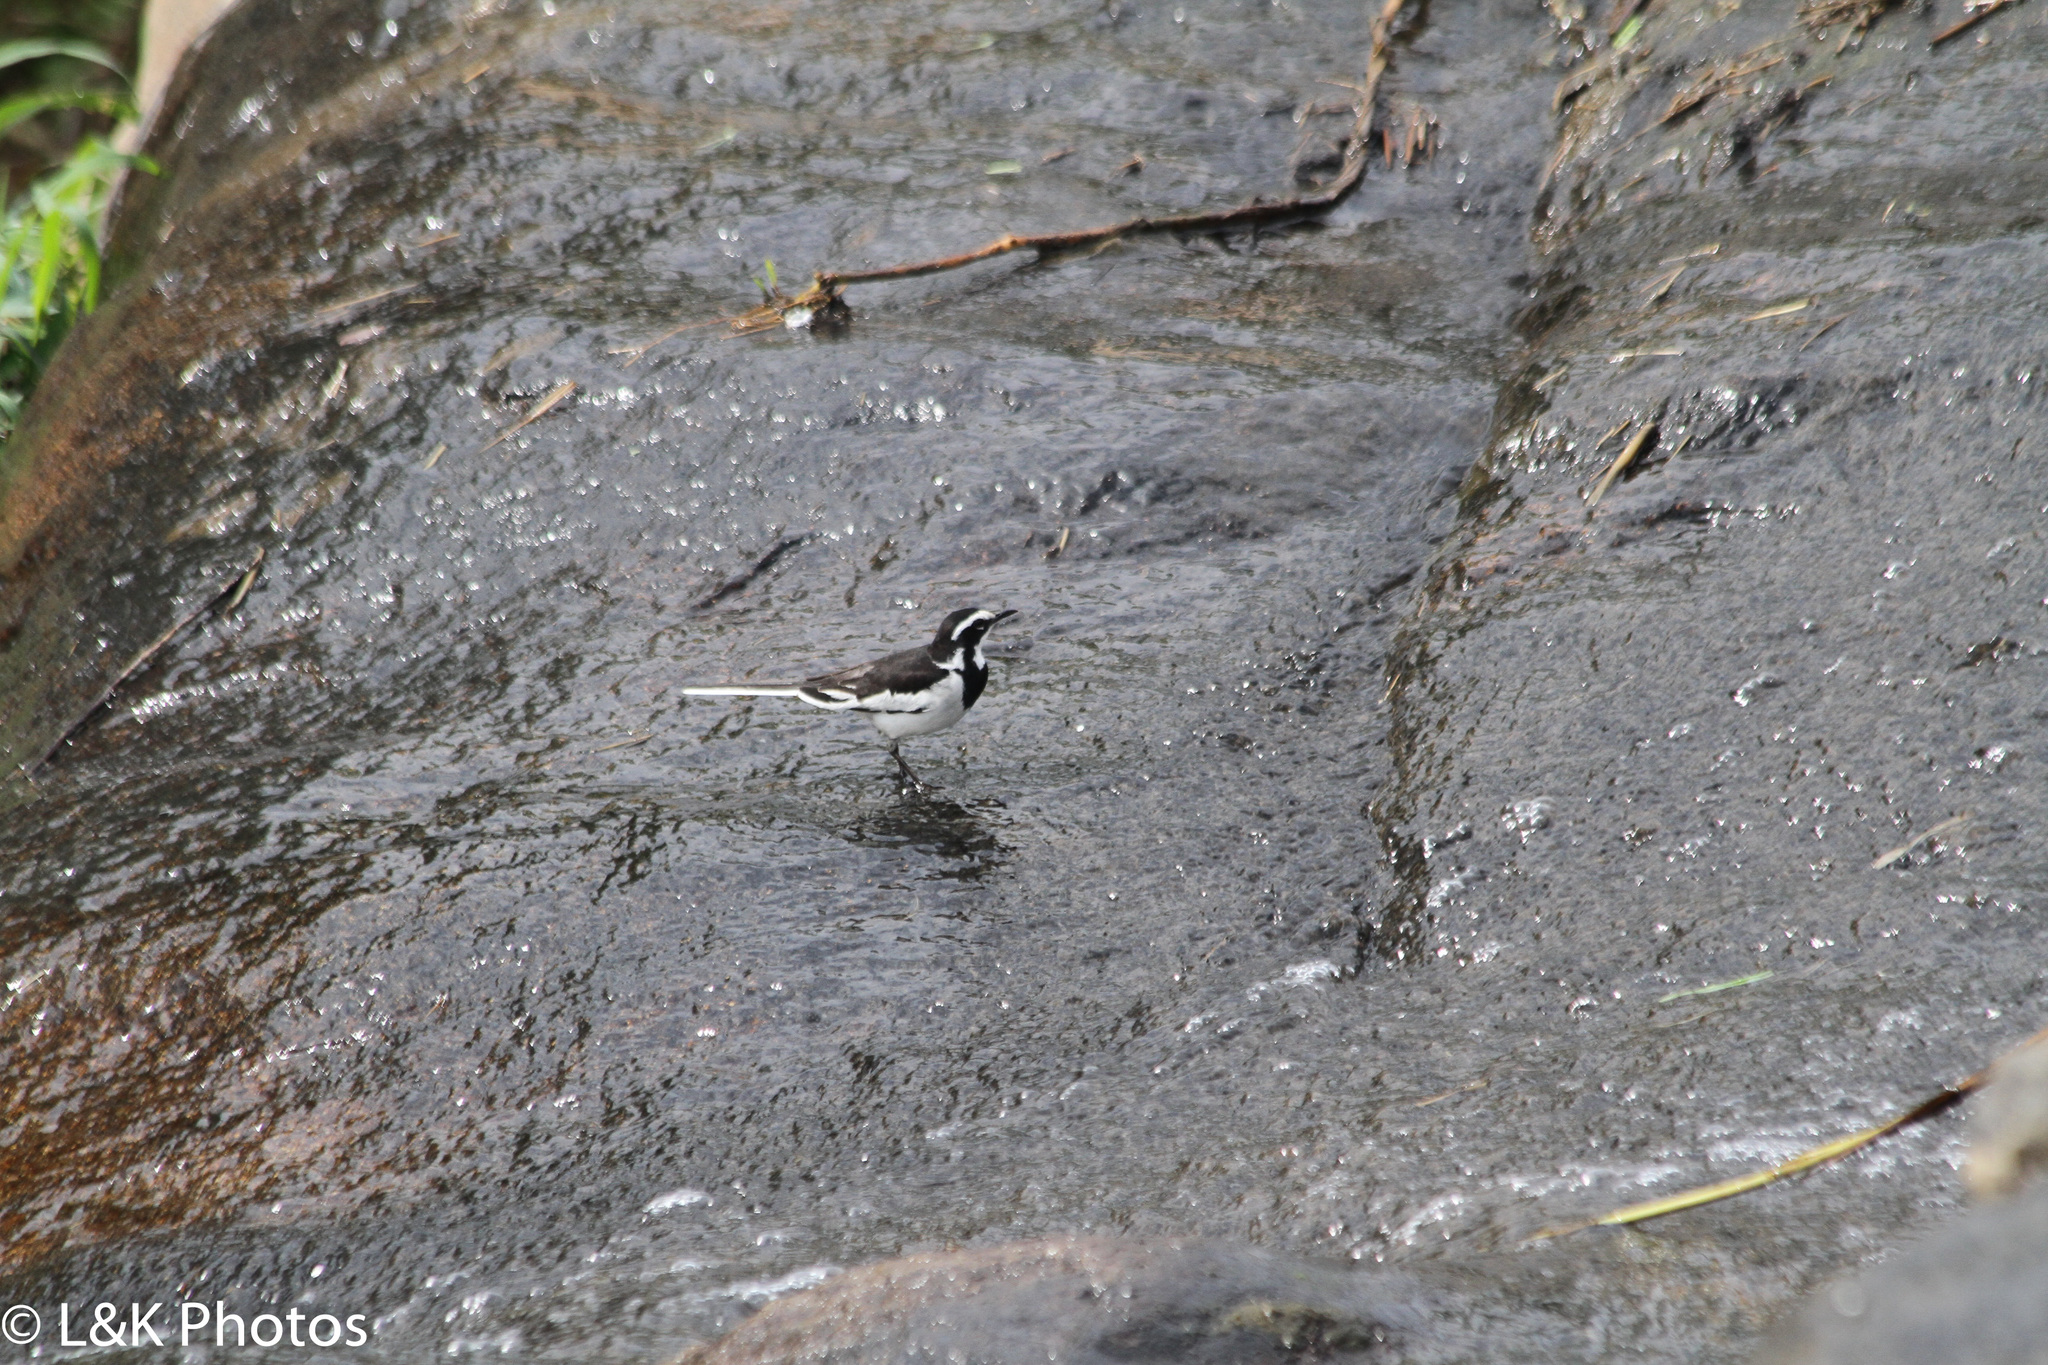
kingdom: Animalia
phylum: Chordata
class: Aves
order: Passeriformes
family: Motacillidae
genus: Motacilla
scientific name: Motacilla aguimp
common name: African pied wagtail
